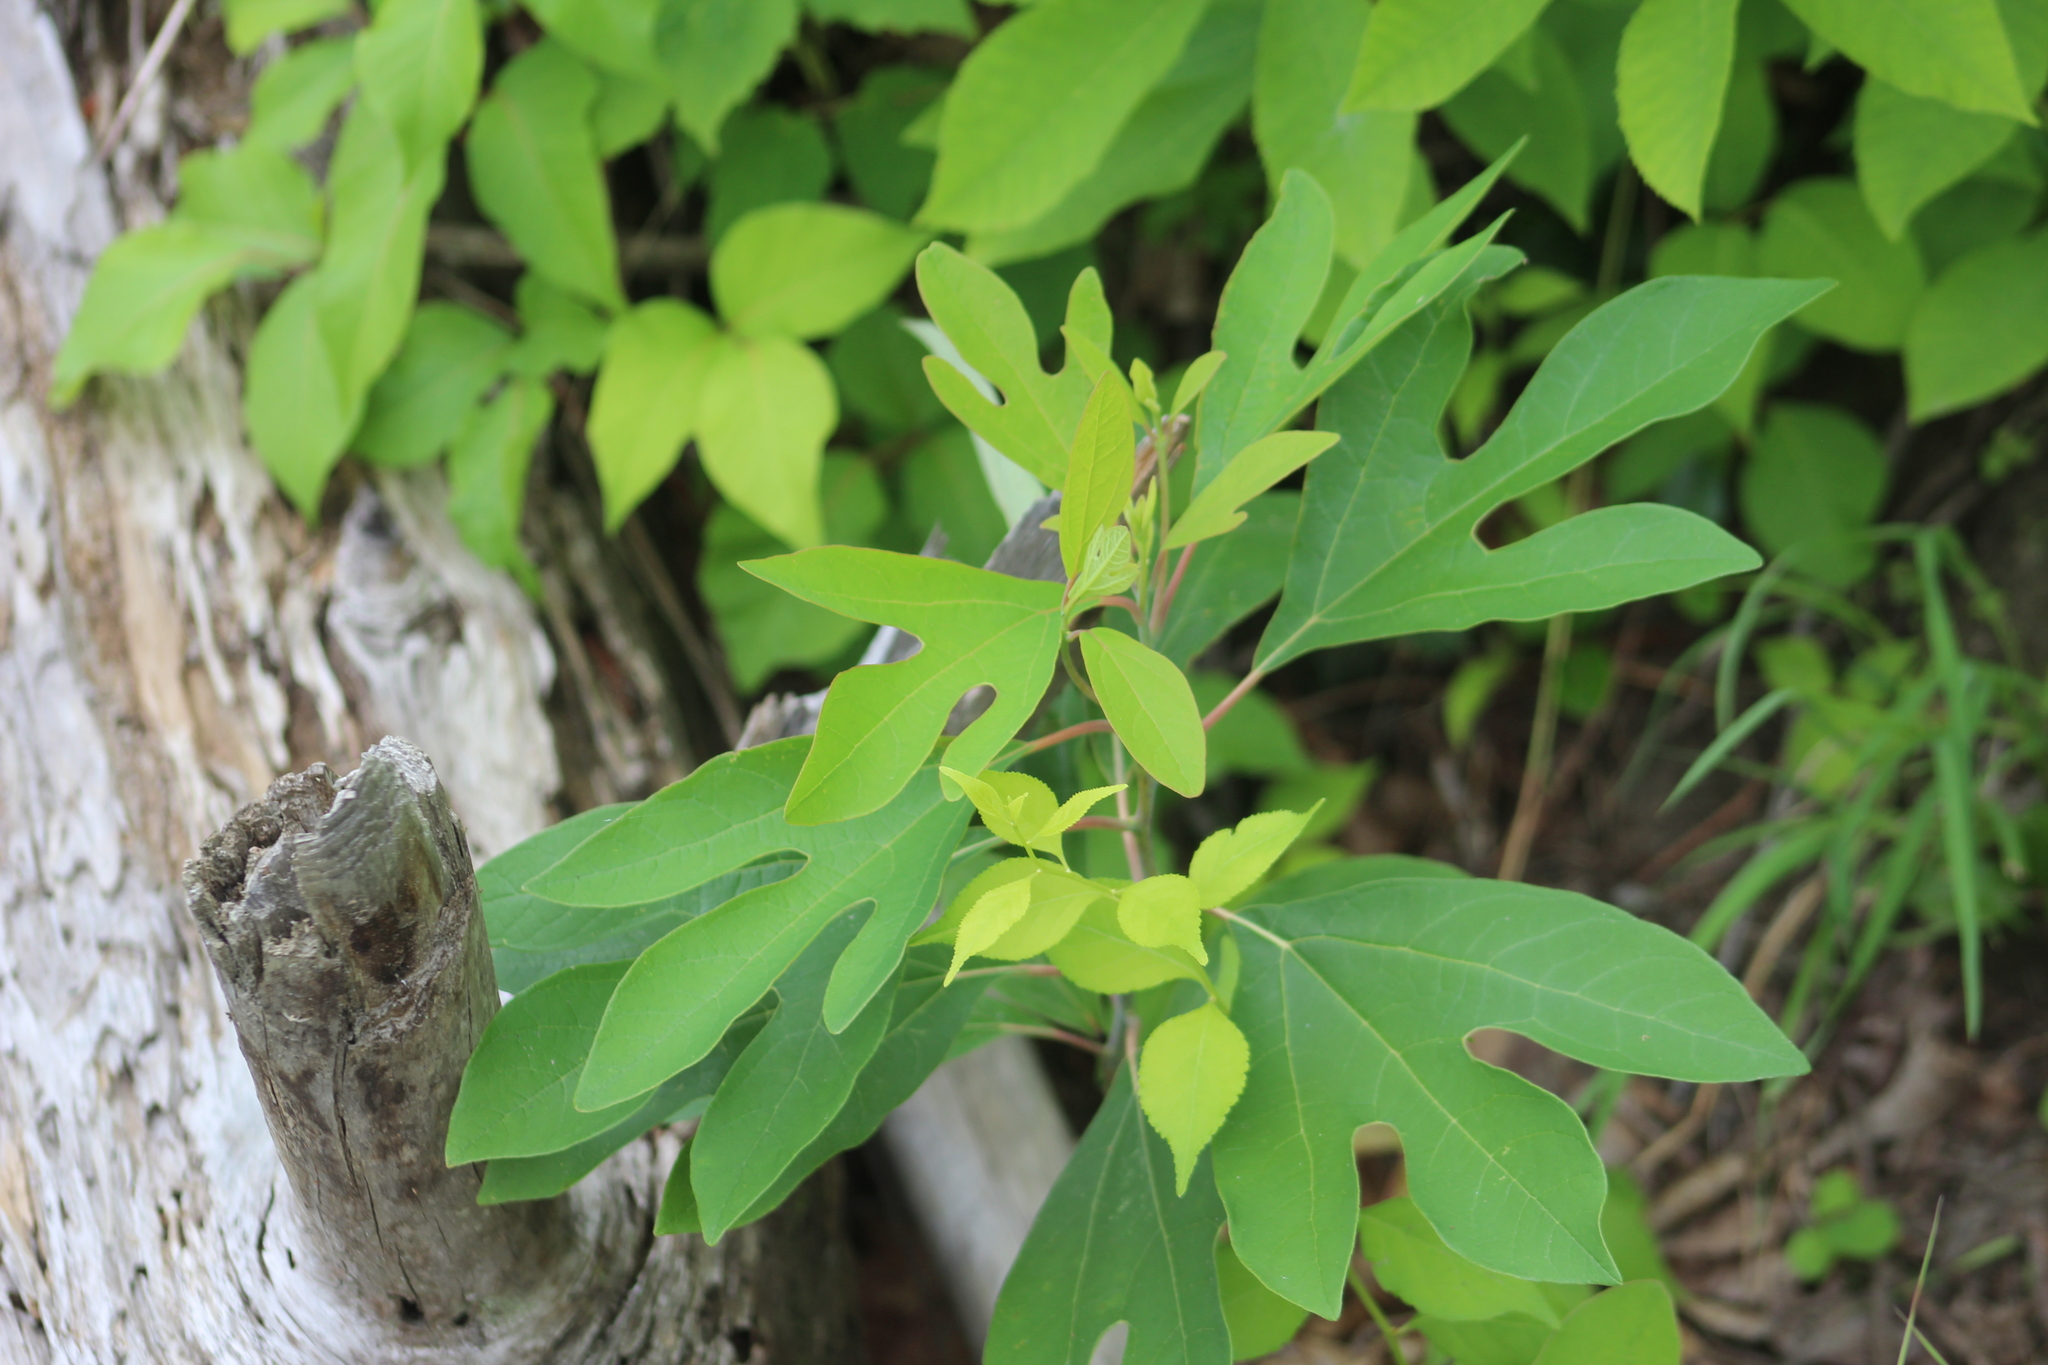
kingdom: Plantae
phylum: Tracheophyta
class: Magnoliopsida
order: Laurales
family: Lauraceae
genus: Sassafras
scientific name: Sassafras albidum
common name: Sassafras
